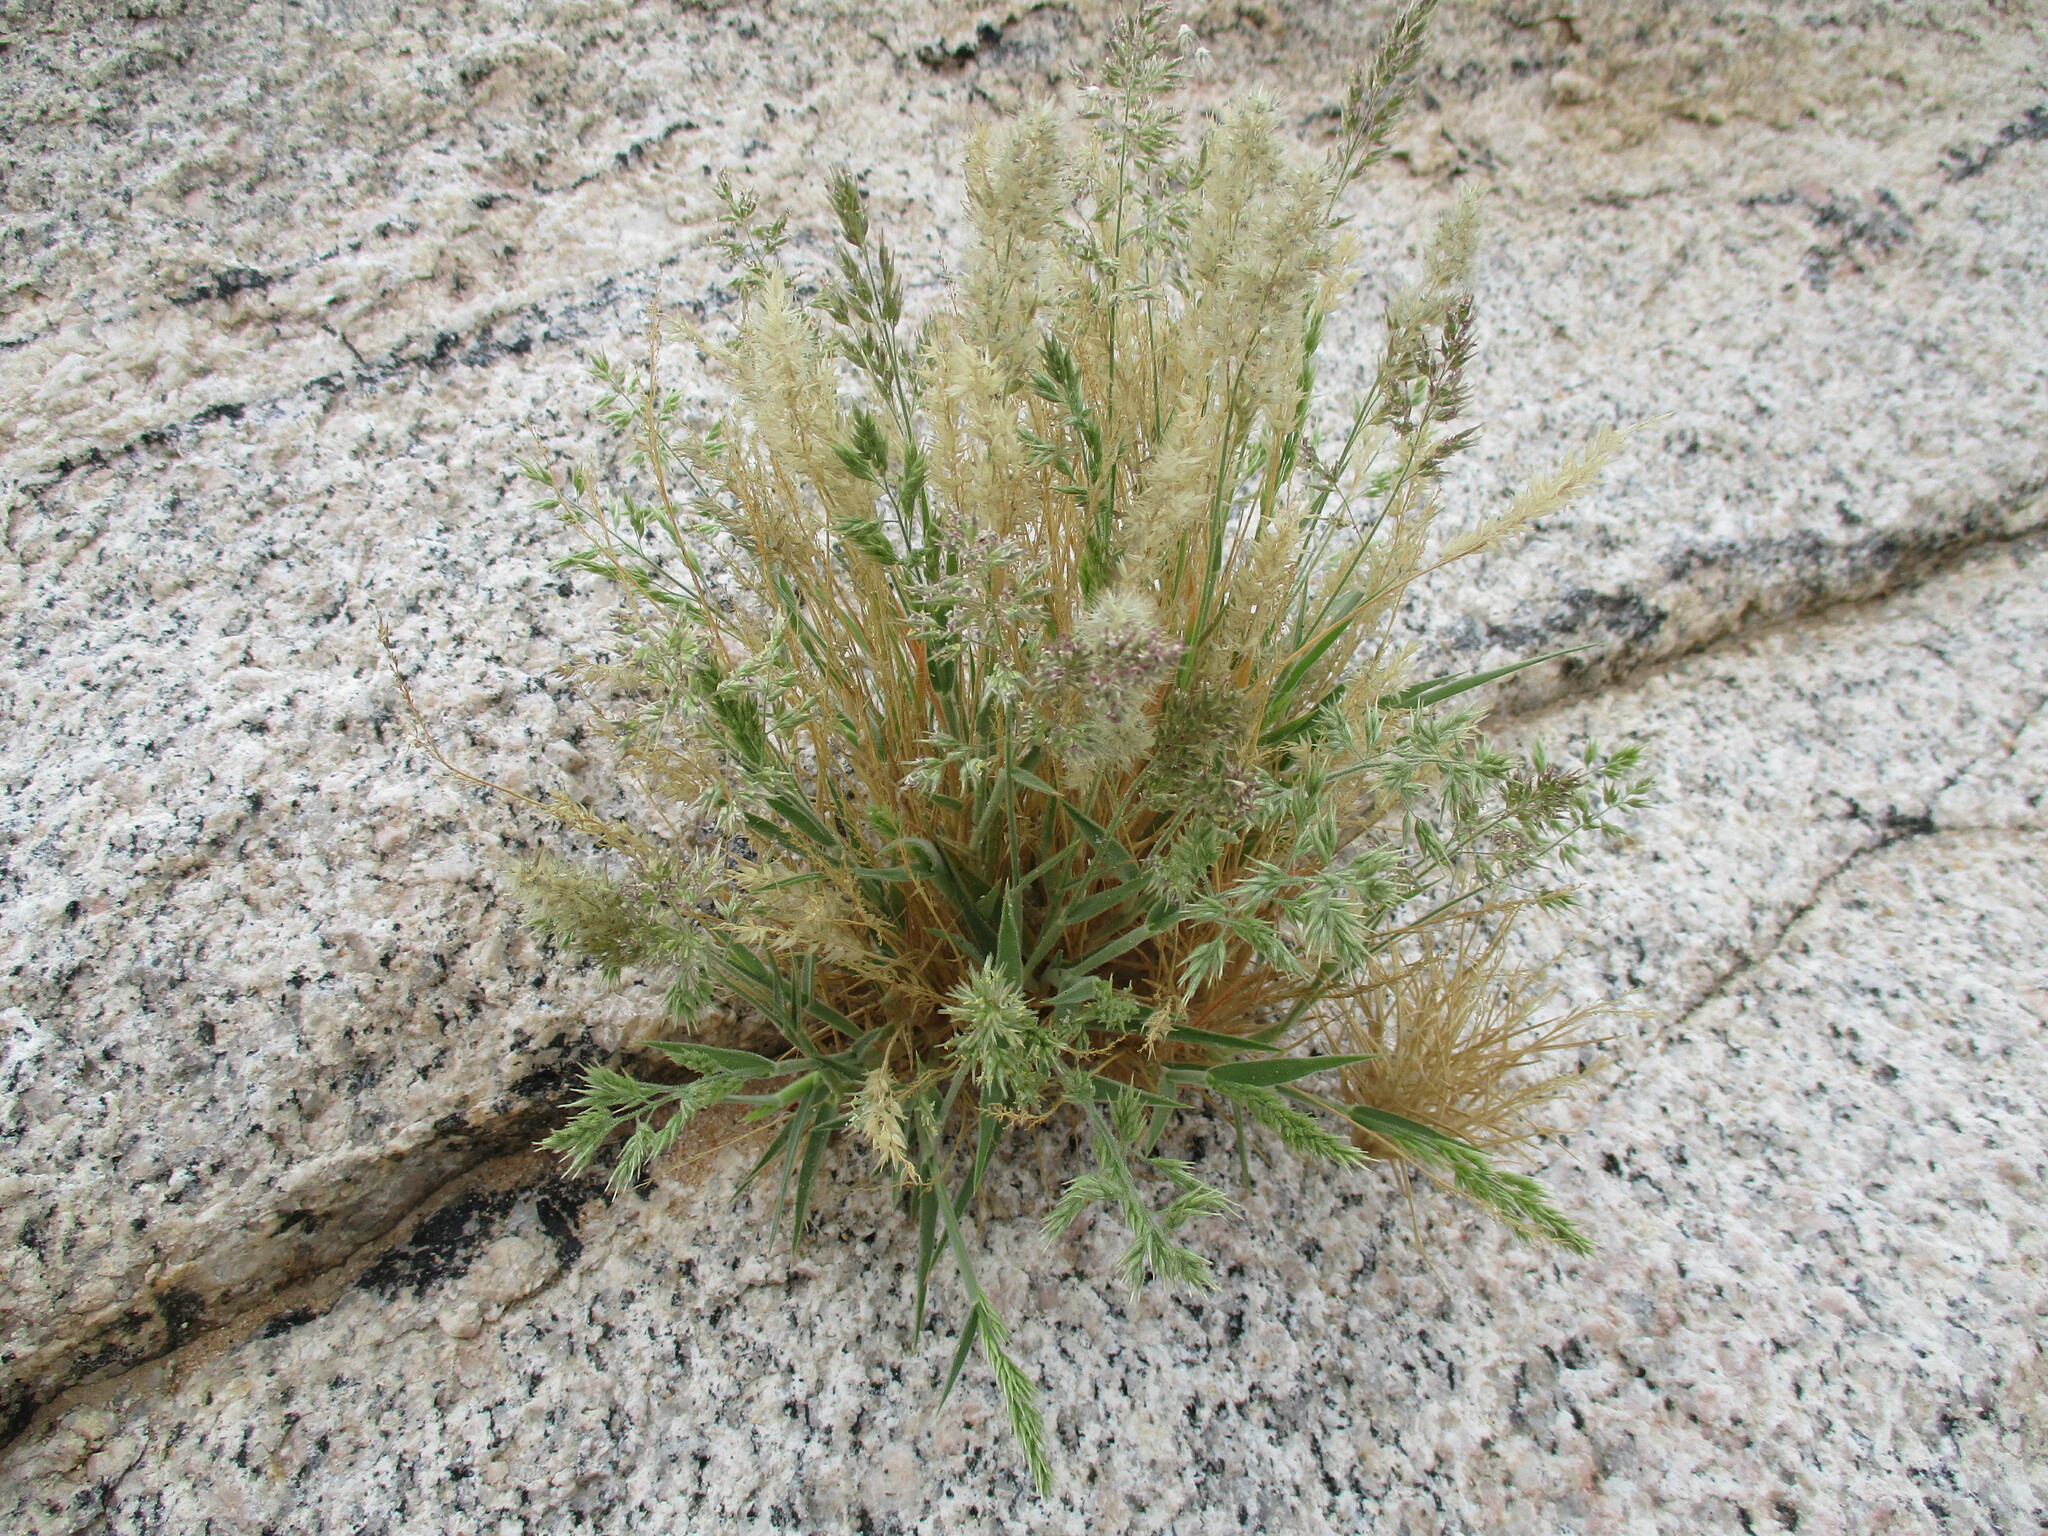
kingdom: Plantae
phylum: Tracheophyta
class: Liliopsida
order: Poales
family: Poaceae
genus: Enneapogon
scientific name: Enneapogon scaber
